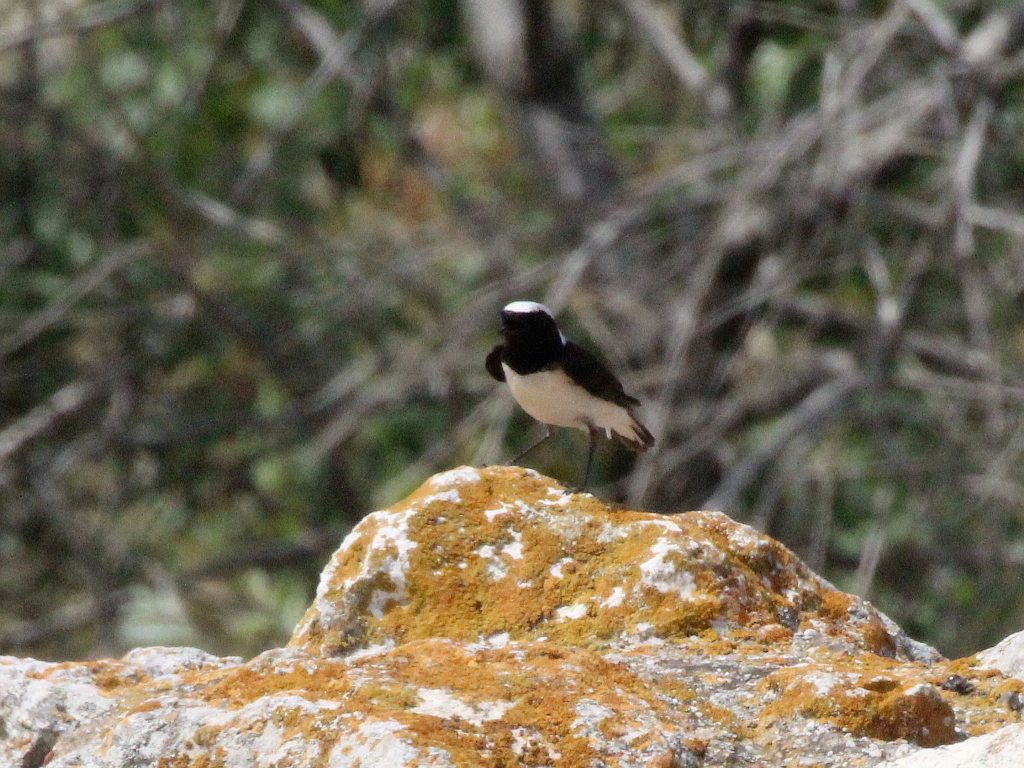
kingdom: Animalia
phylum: Chordata
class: Aves
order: Passeriformes
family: Muscicapidae
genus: Oenanthe
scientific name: Oenanthe pleschanka
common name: Pied wheatear
